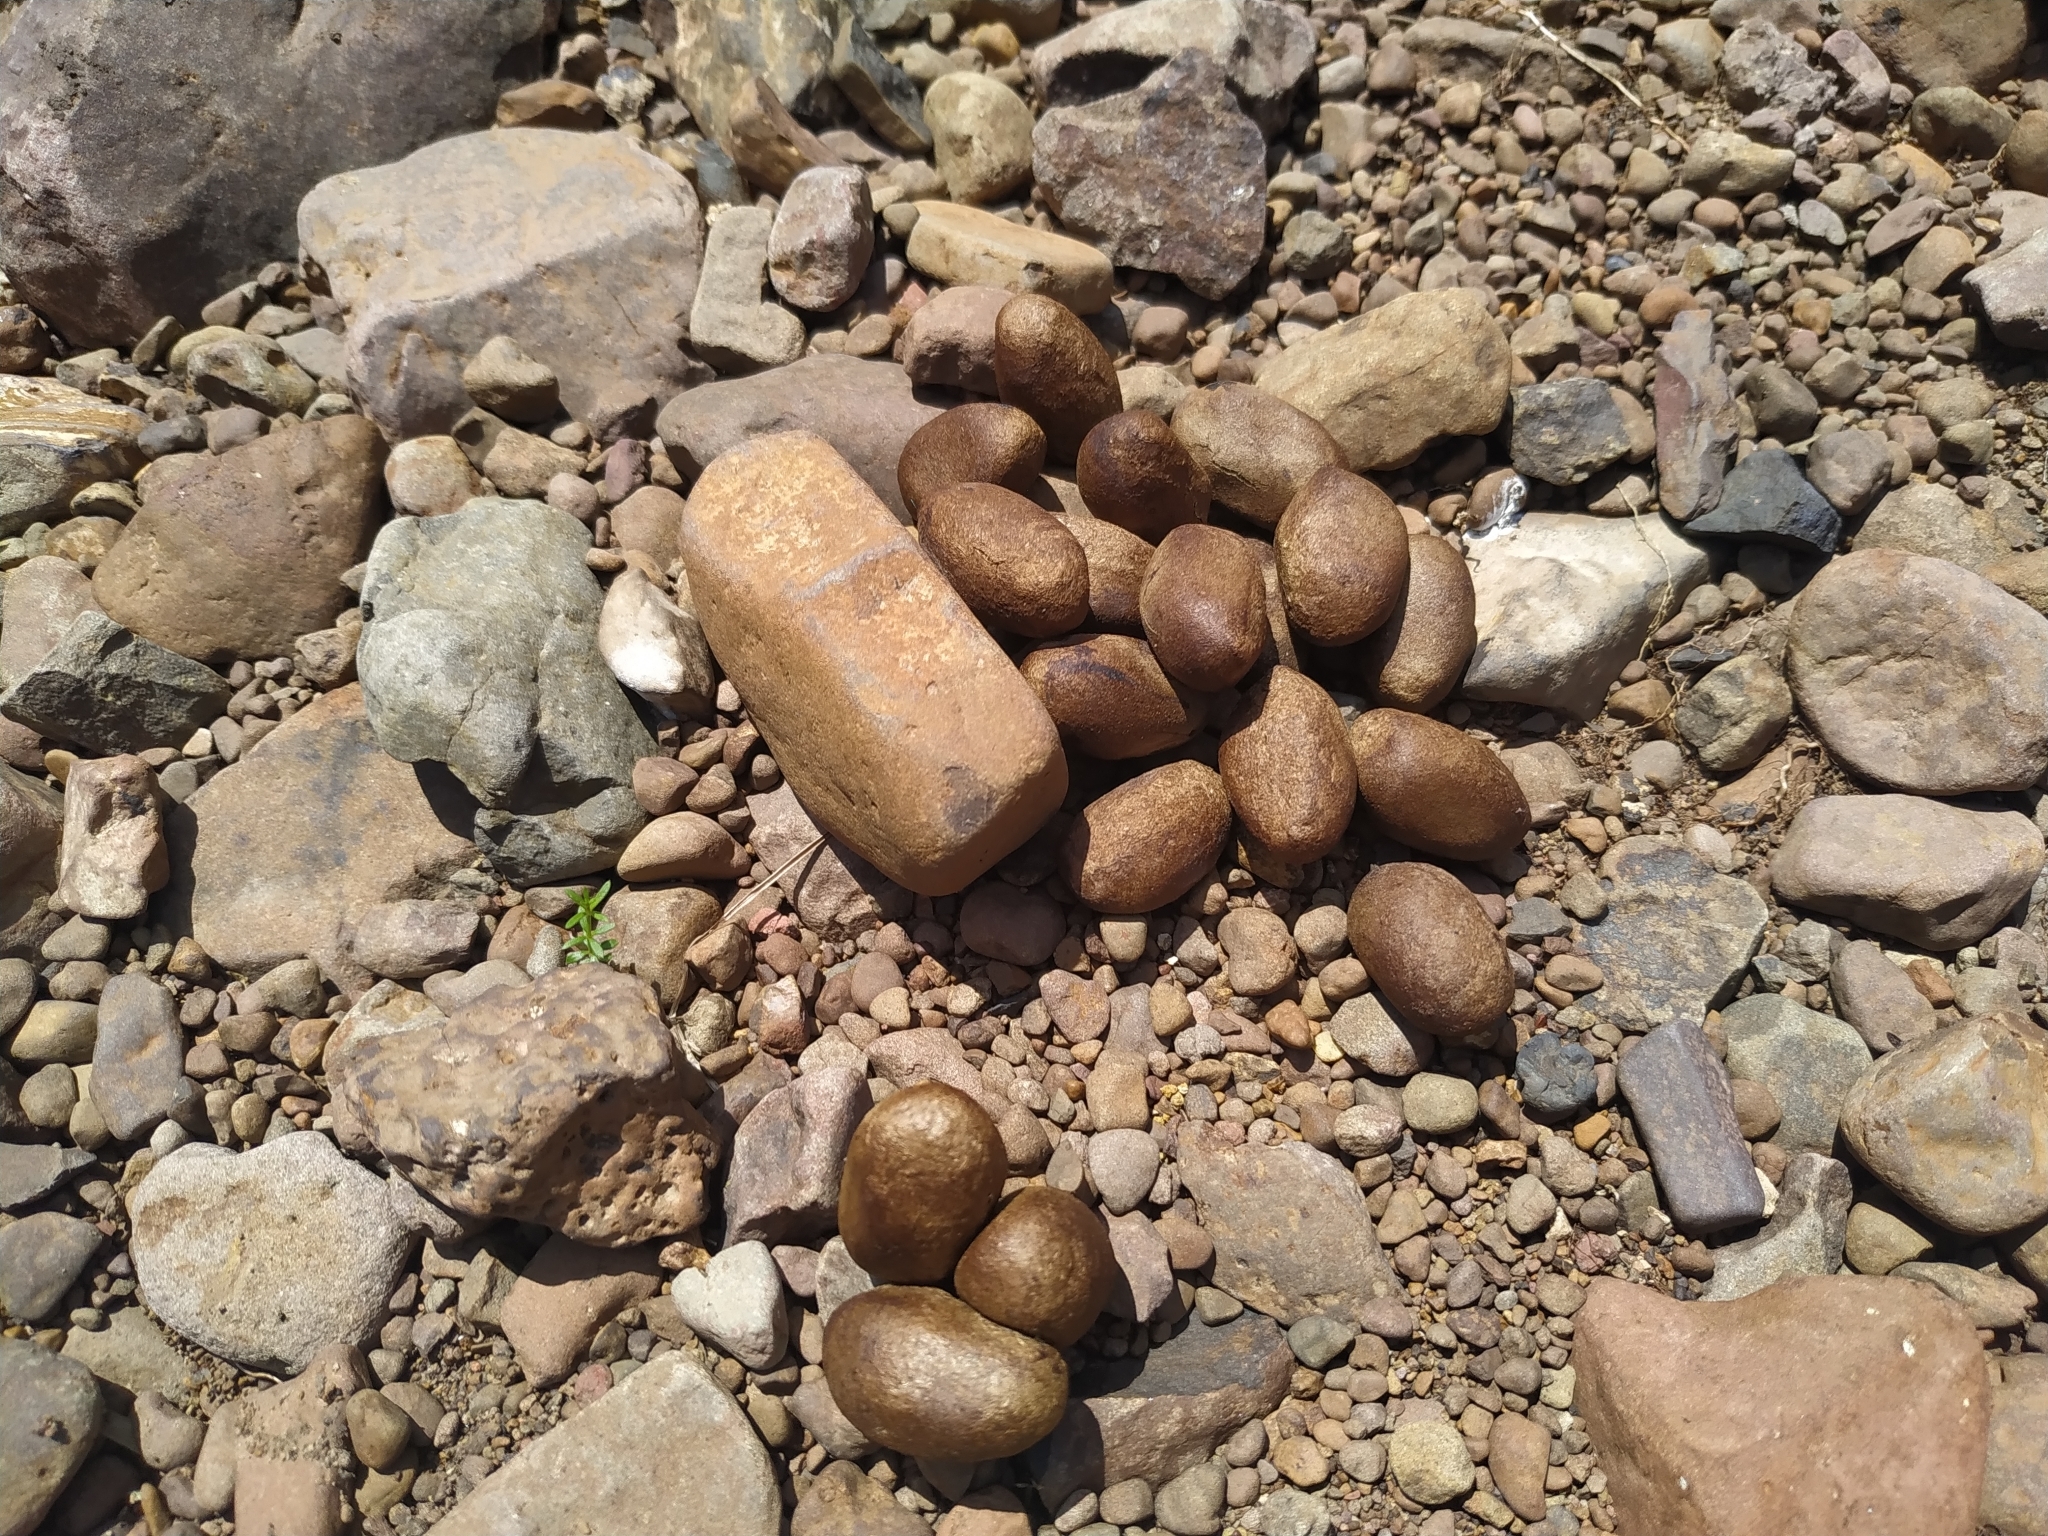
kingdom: Animalia
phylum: Chordata
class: Mammalia
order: Rodentia
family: Caviidae
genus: Hydrochoerus
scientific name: Hydrochoerus hydrochaeris
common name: Capybara
